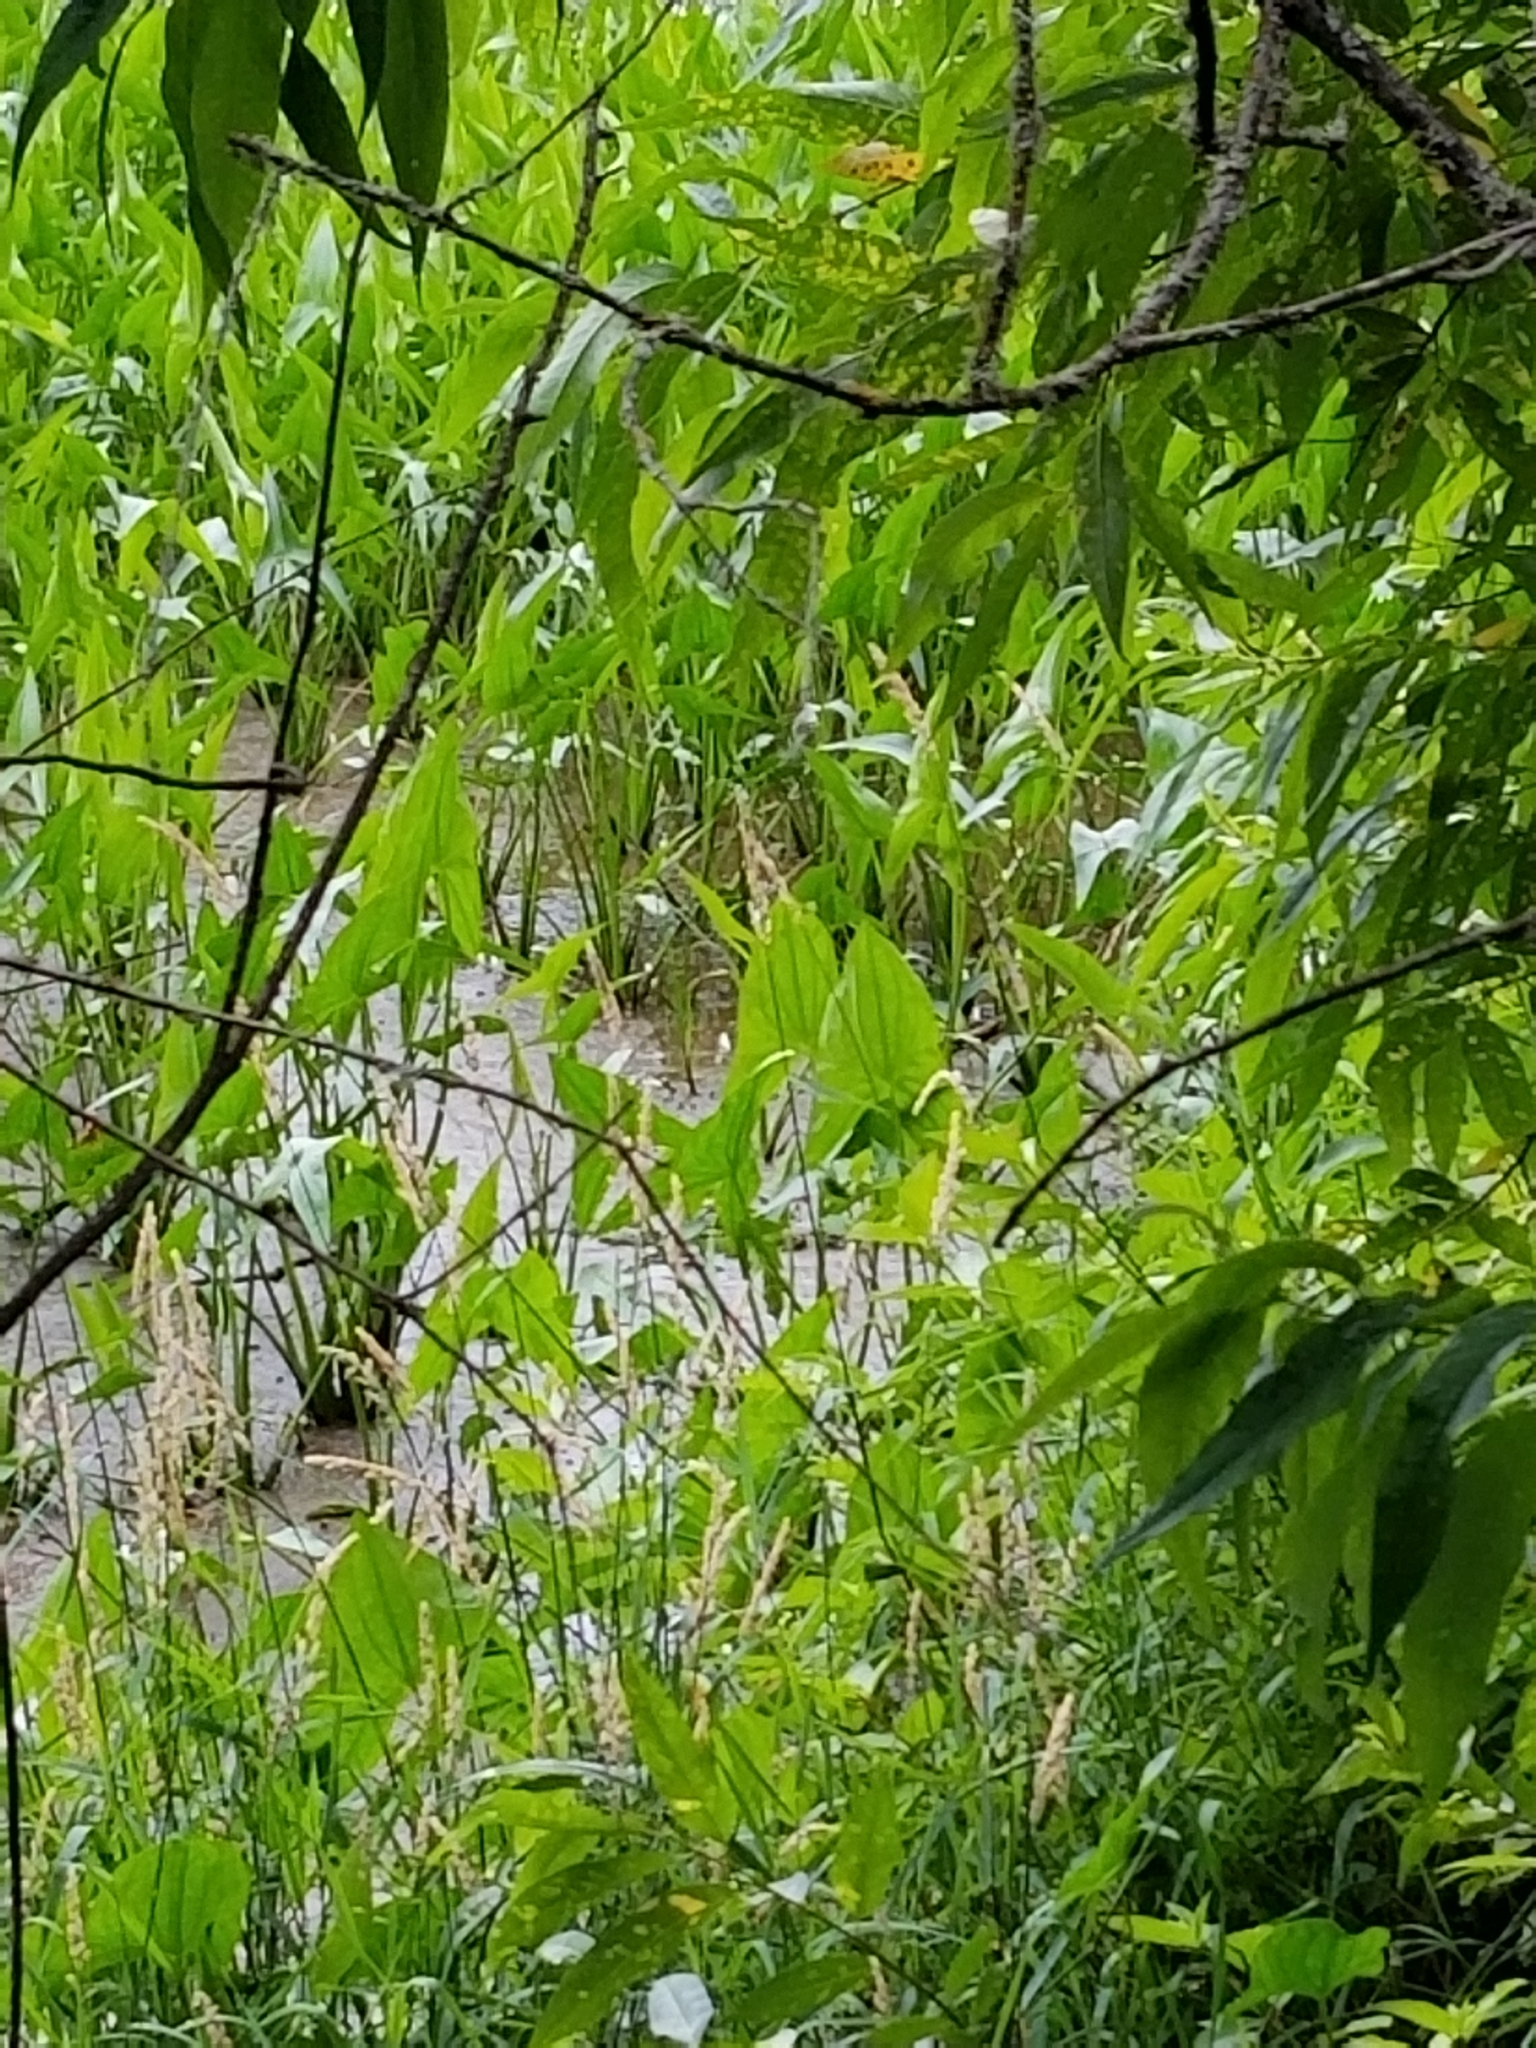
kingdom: Plantae
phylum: Tracheophyta
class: Liliopsida
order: Alismatales
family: Alismataceae
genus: Sagittaria
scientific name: Sagittaria latifolia
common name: Duck-potato
